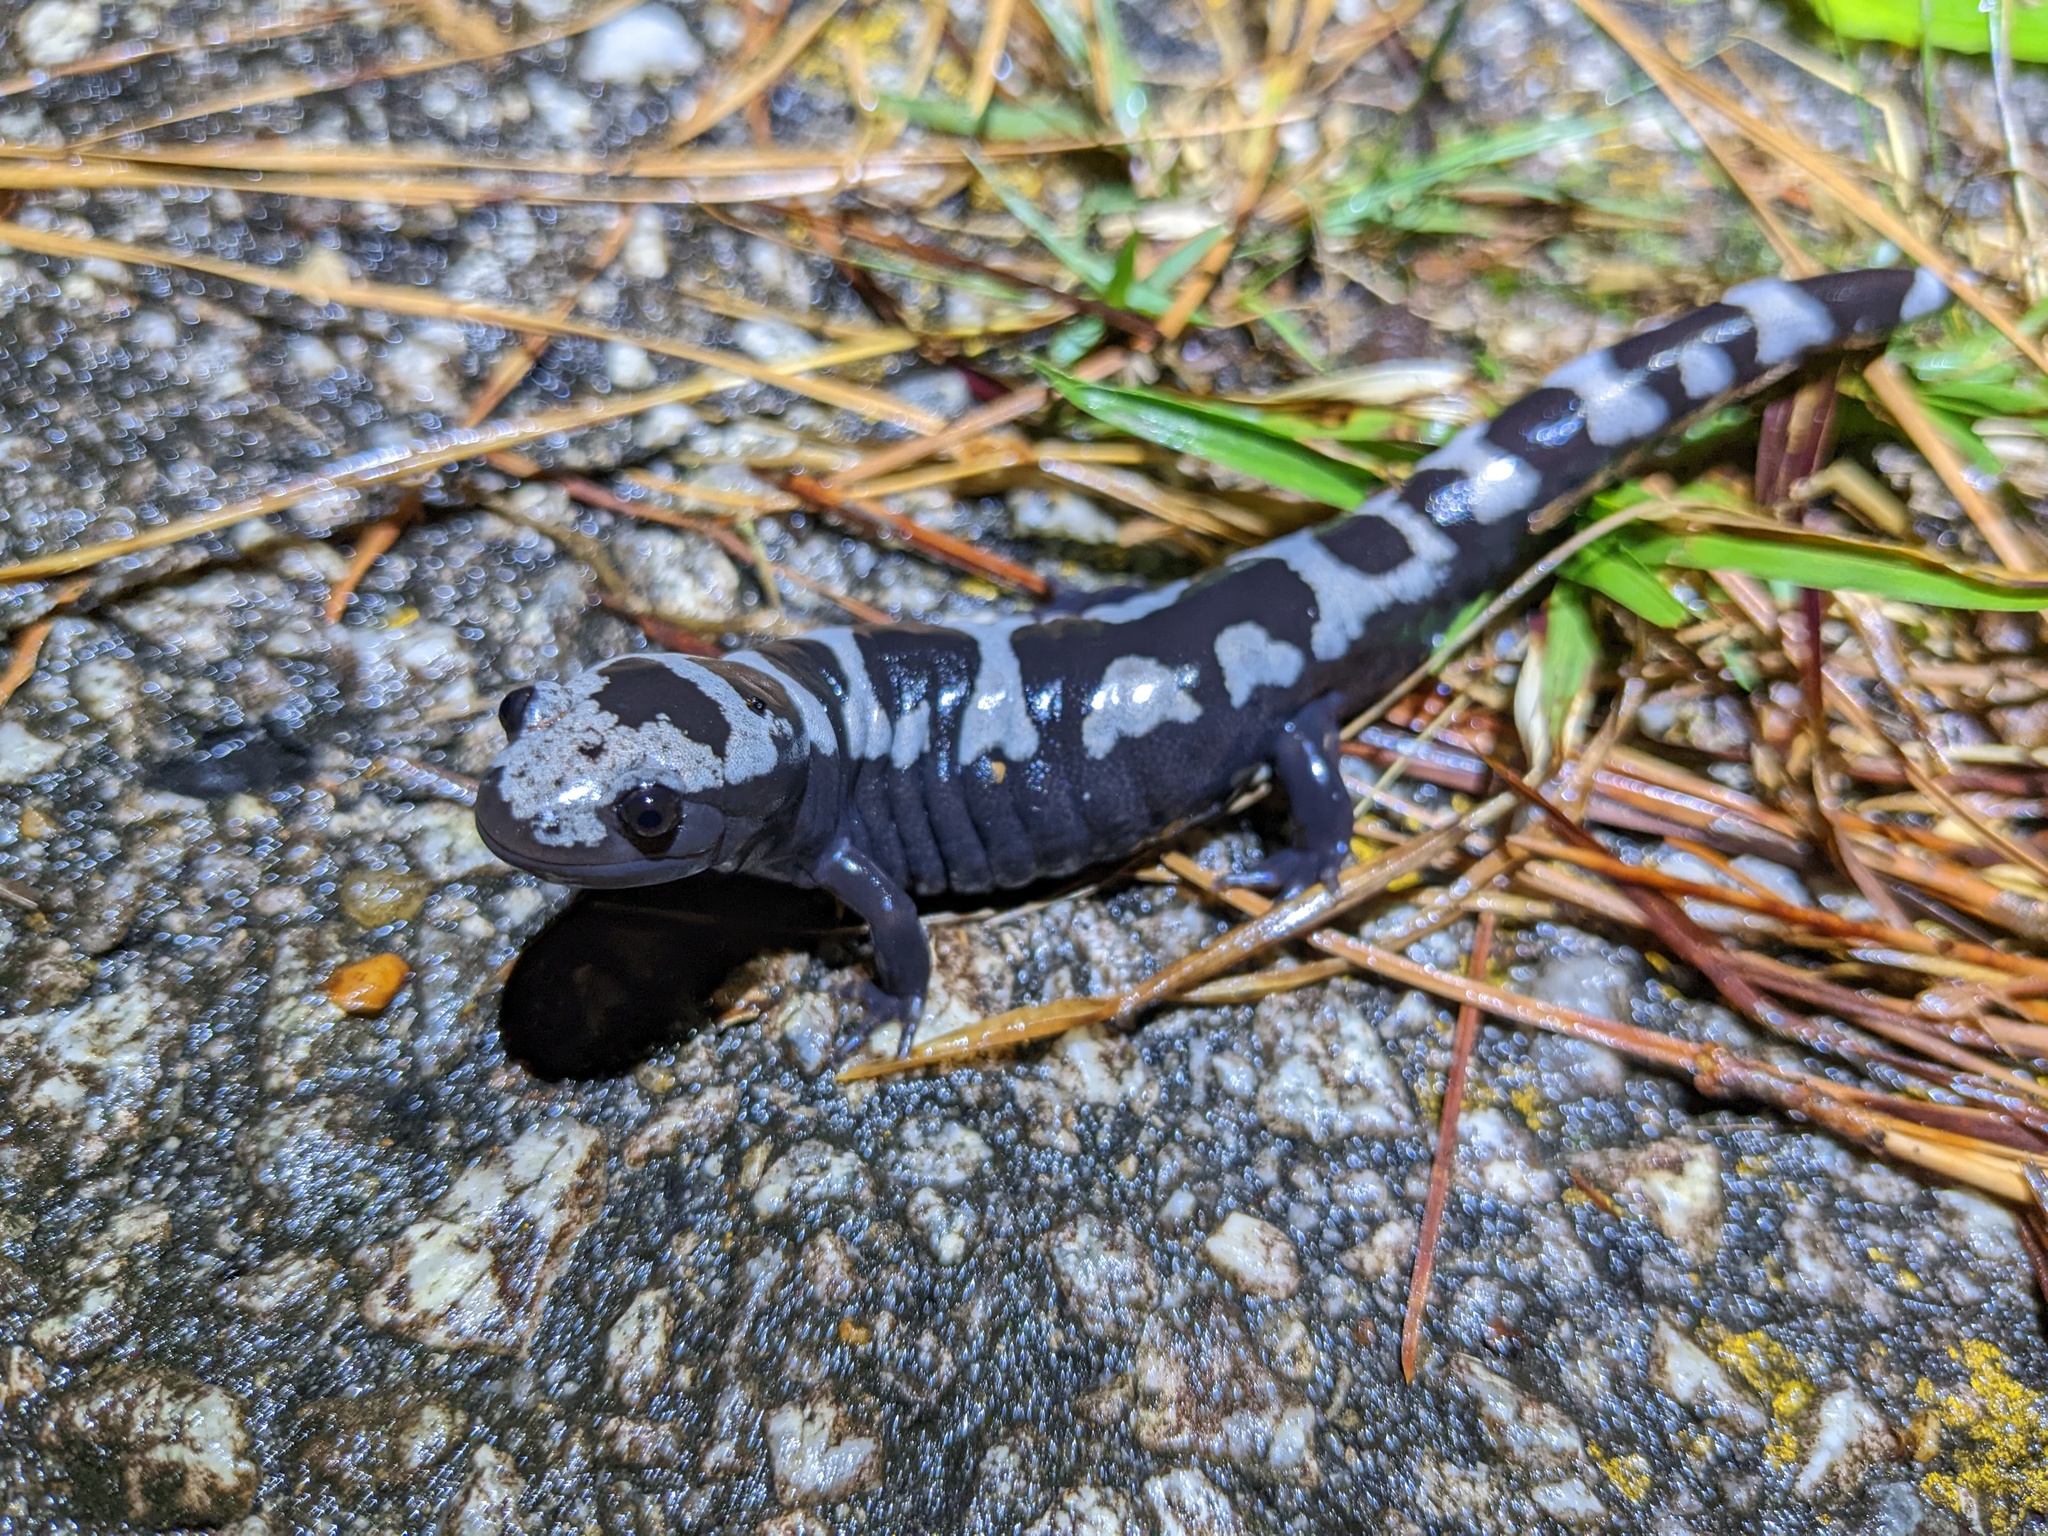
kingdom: Animalia
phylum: Chordata
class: Amphibia
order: Caudata
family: Ambystomatidae
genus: Ambystoma
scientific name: Ambystoma opacum
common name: Marbled salamander
